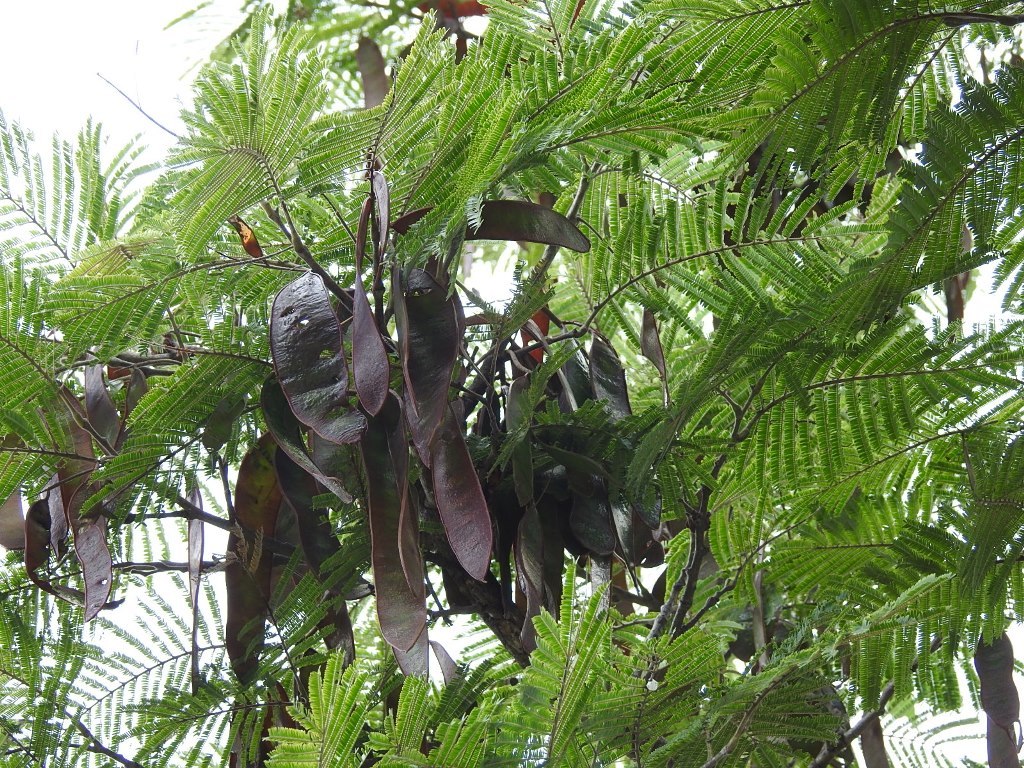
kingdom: Plantae
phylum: Tracheophyta
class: Magnoliopsida
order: Fabales
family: Fabaceae
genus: Lysiloma
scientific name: Lysiloma auritum
